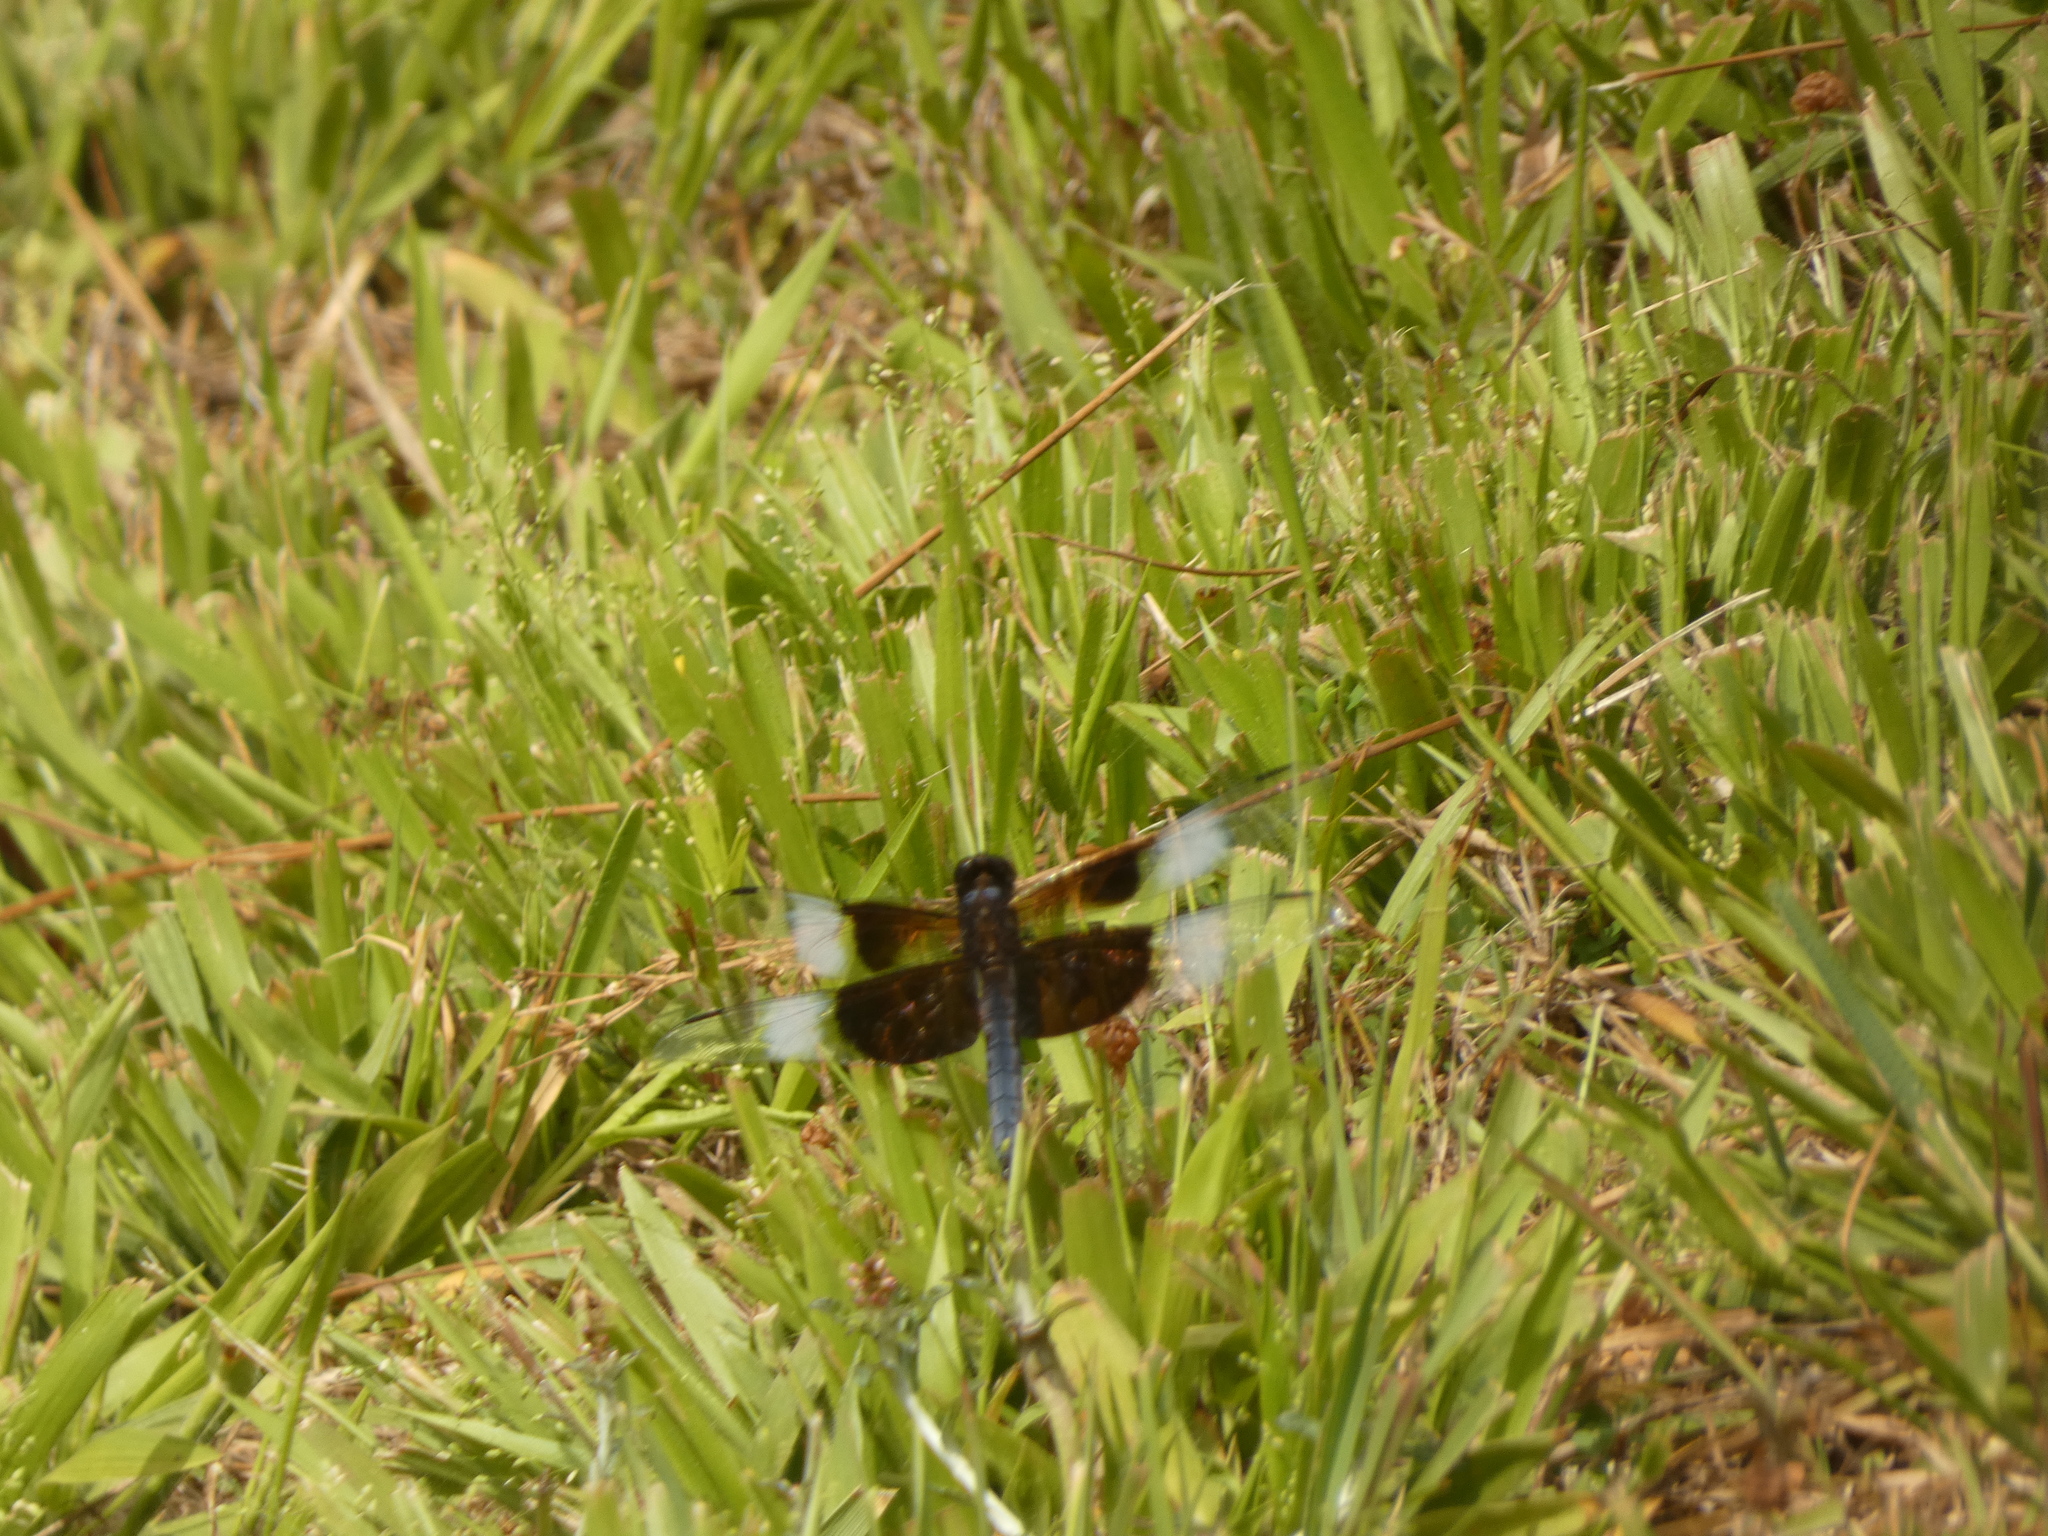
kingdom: Animalia
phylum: Arthropoda
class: Insecta
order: Odonata
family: Libellulidae
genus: Libellula
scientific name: Libellula luctuosa
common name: Widow skimmer
